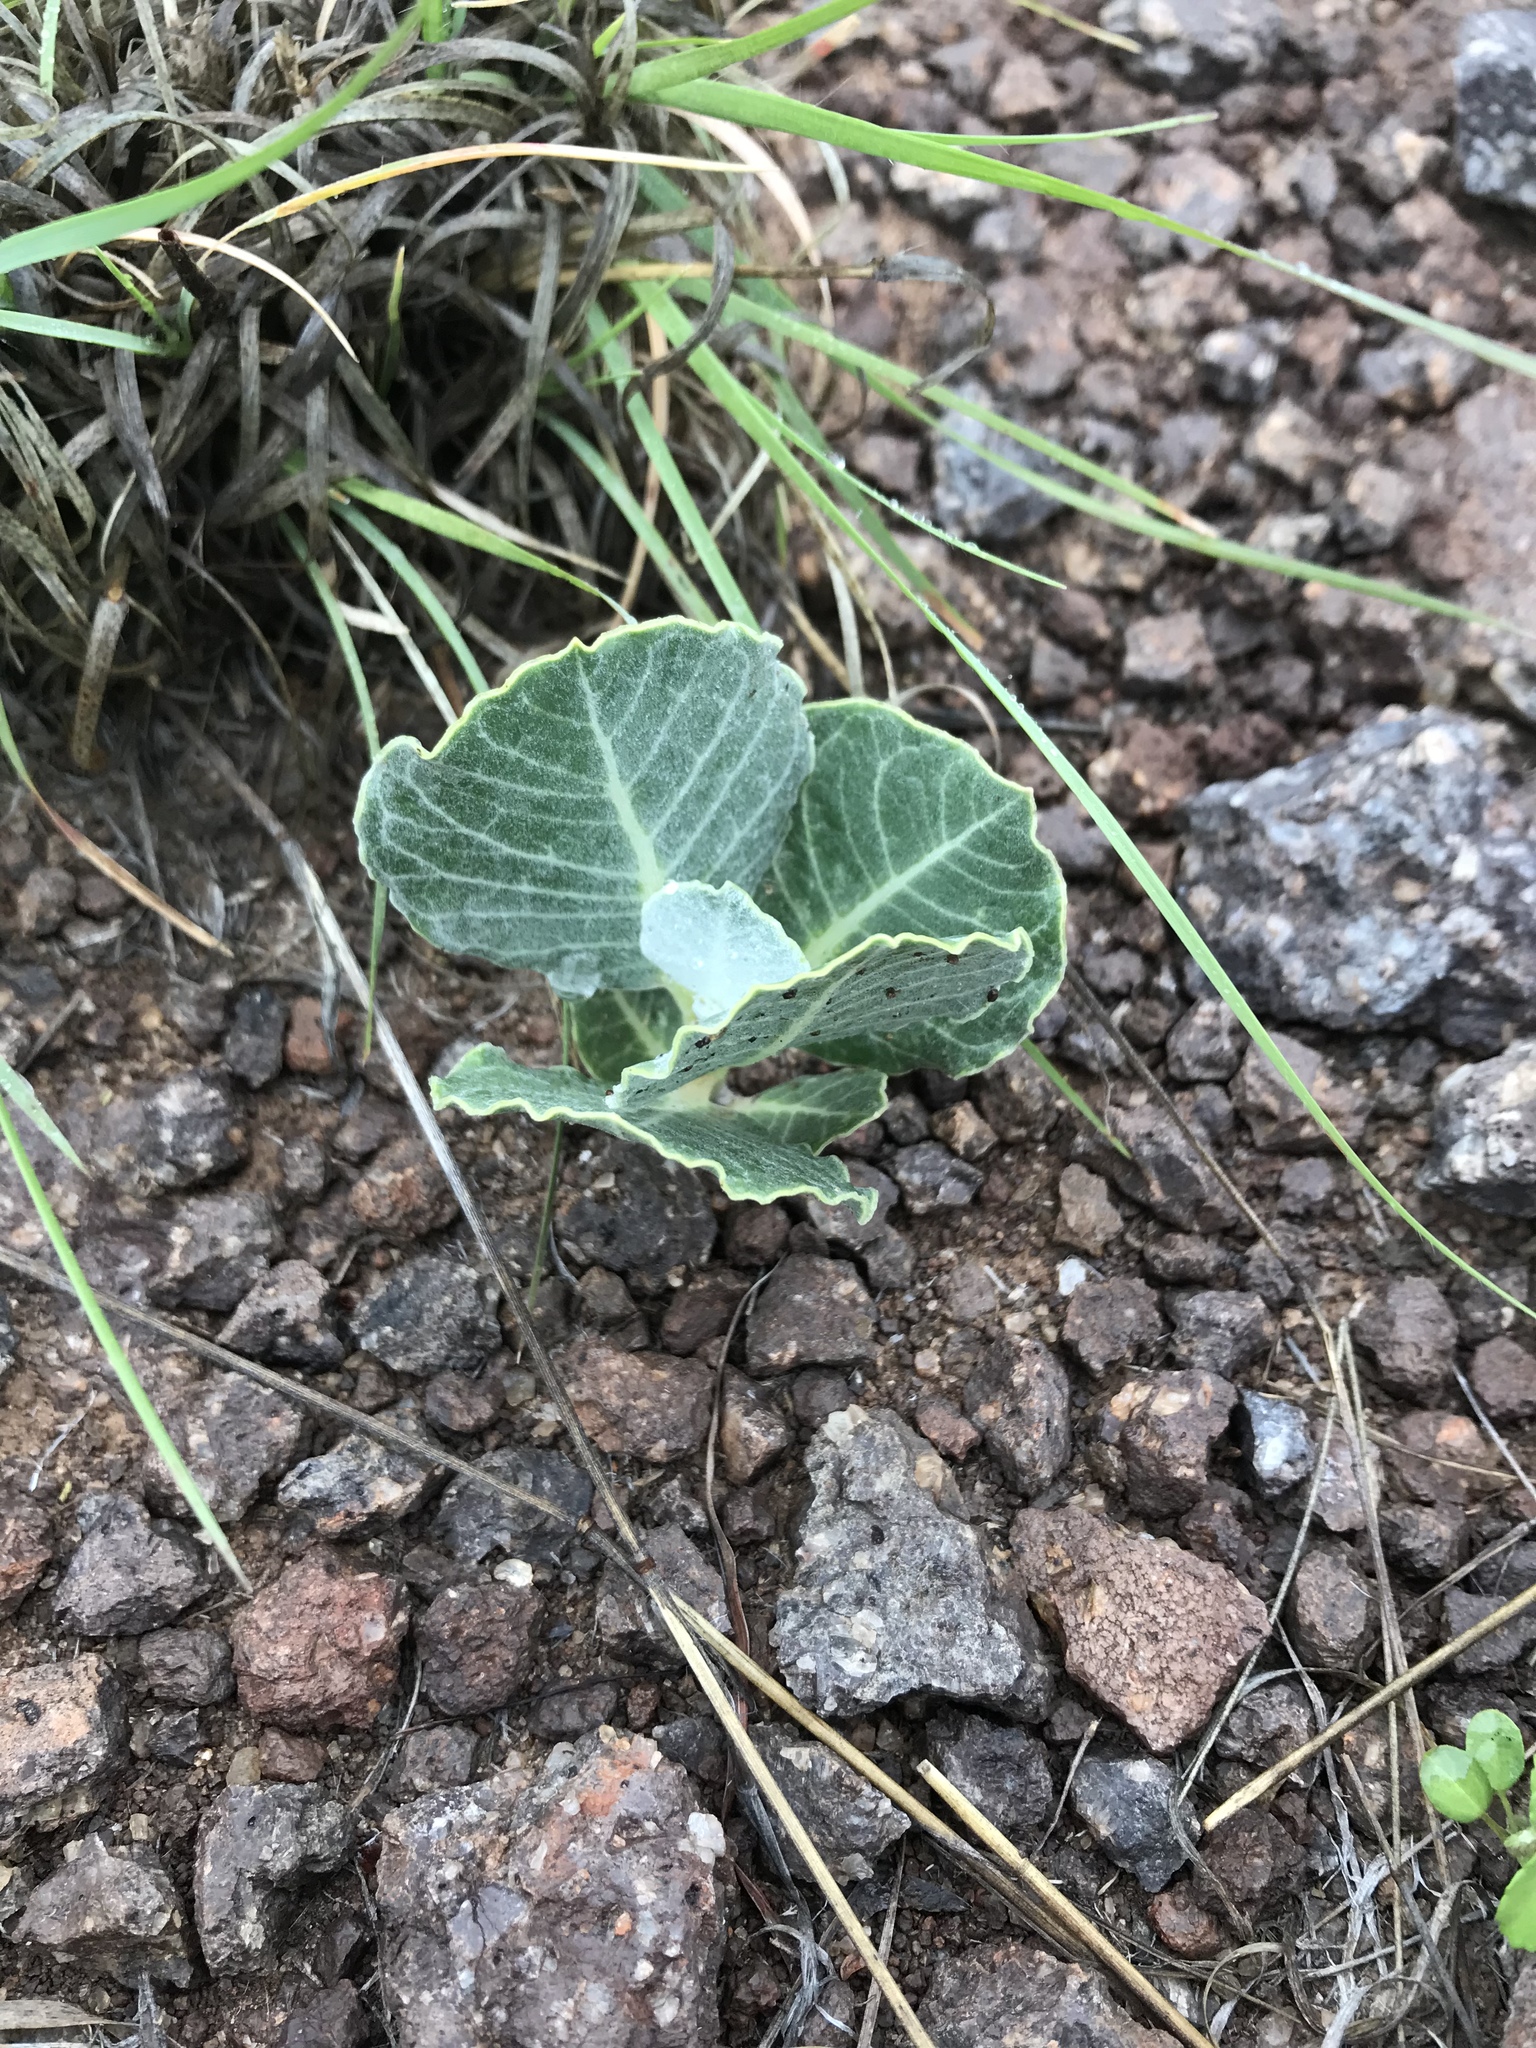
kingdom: Plantae
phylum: Tracheophyta
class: Magnoliopsida
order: Gentianales
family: Apocynaceae
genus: Asclepias
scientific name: Asclepias nummularia
